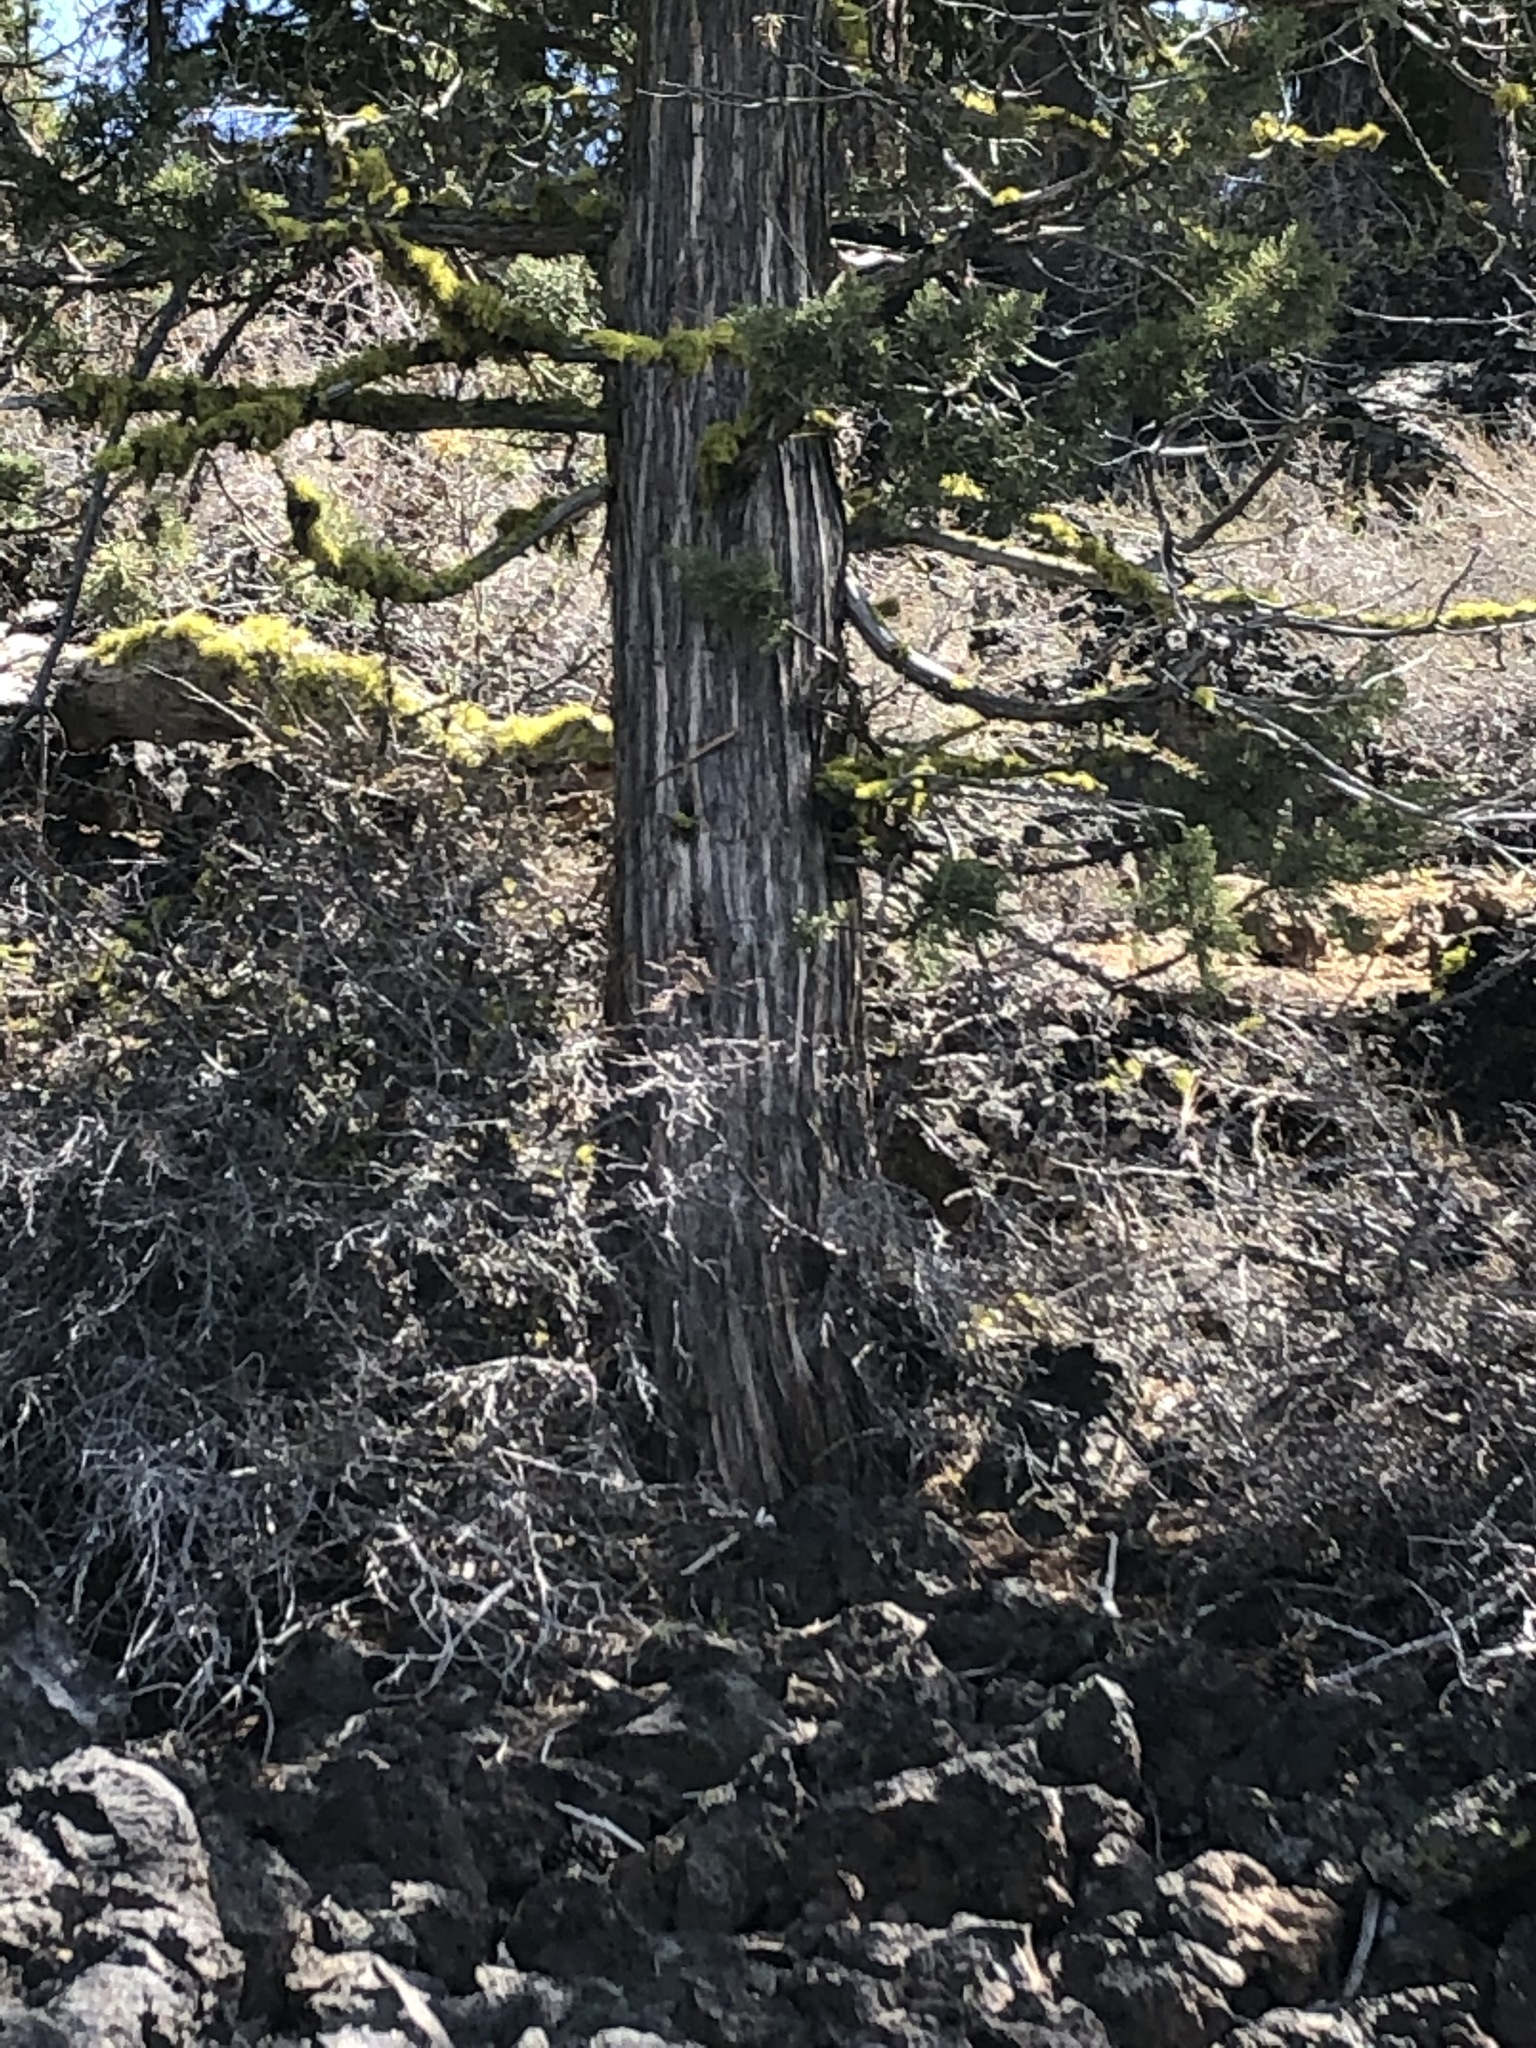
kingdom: Plantae
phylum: Tracheophyta
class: Pinopsida
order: Pinales
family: Cupressaceae
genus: Juniperus
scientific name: Juniperus occidentalis
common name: Western juniper
